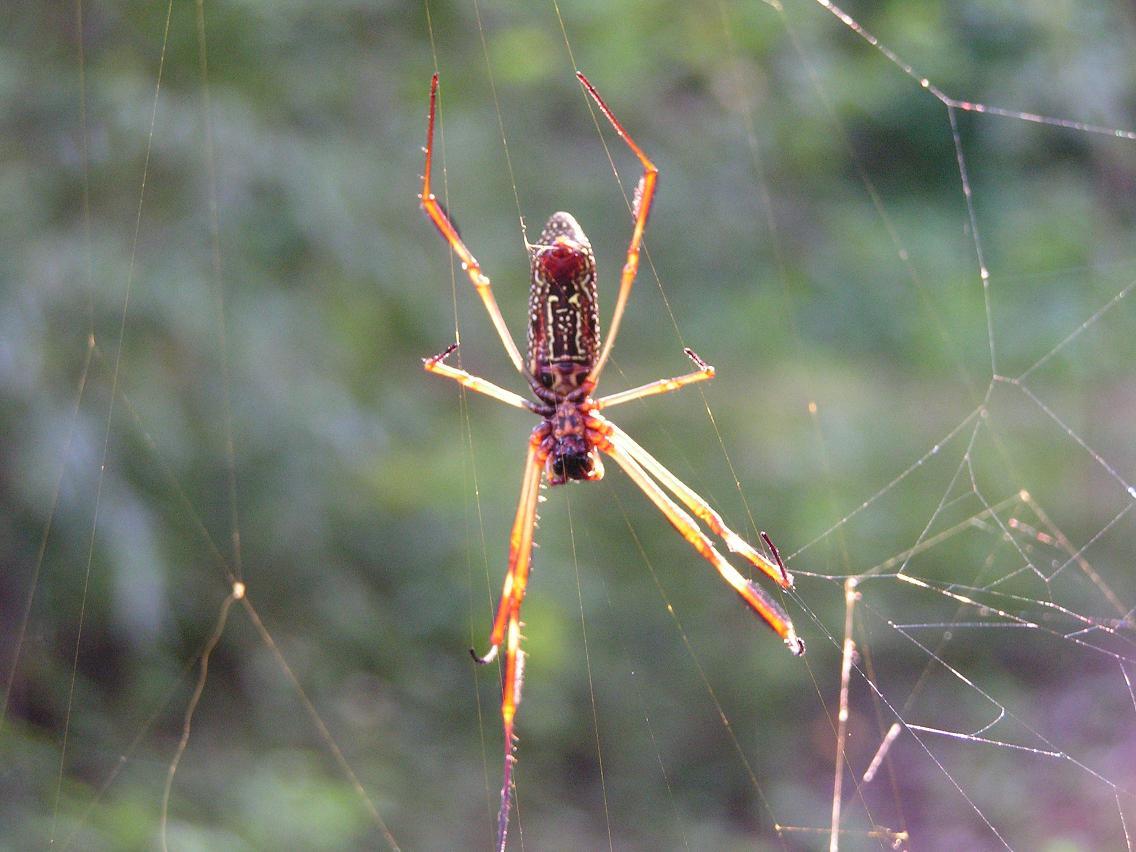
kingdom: Animalia
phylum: Arthropoda
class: Arachnida
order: Araneae
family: Araneidae
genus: Argiope
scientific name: Argiope argentata
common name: Orb weavers
